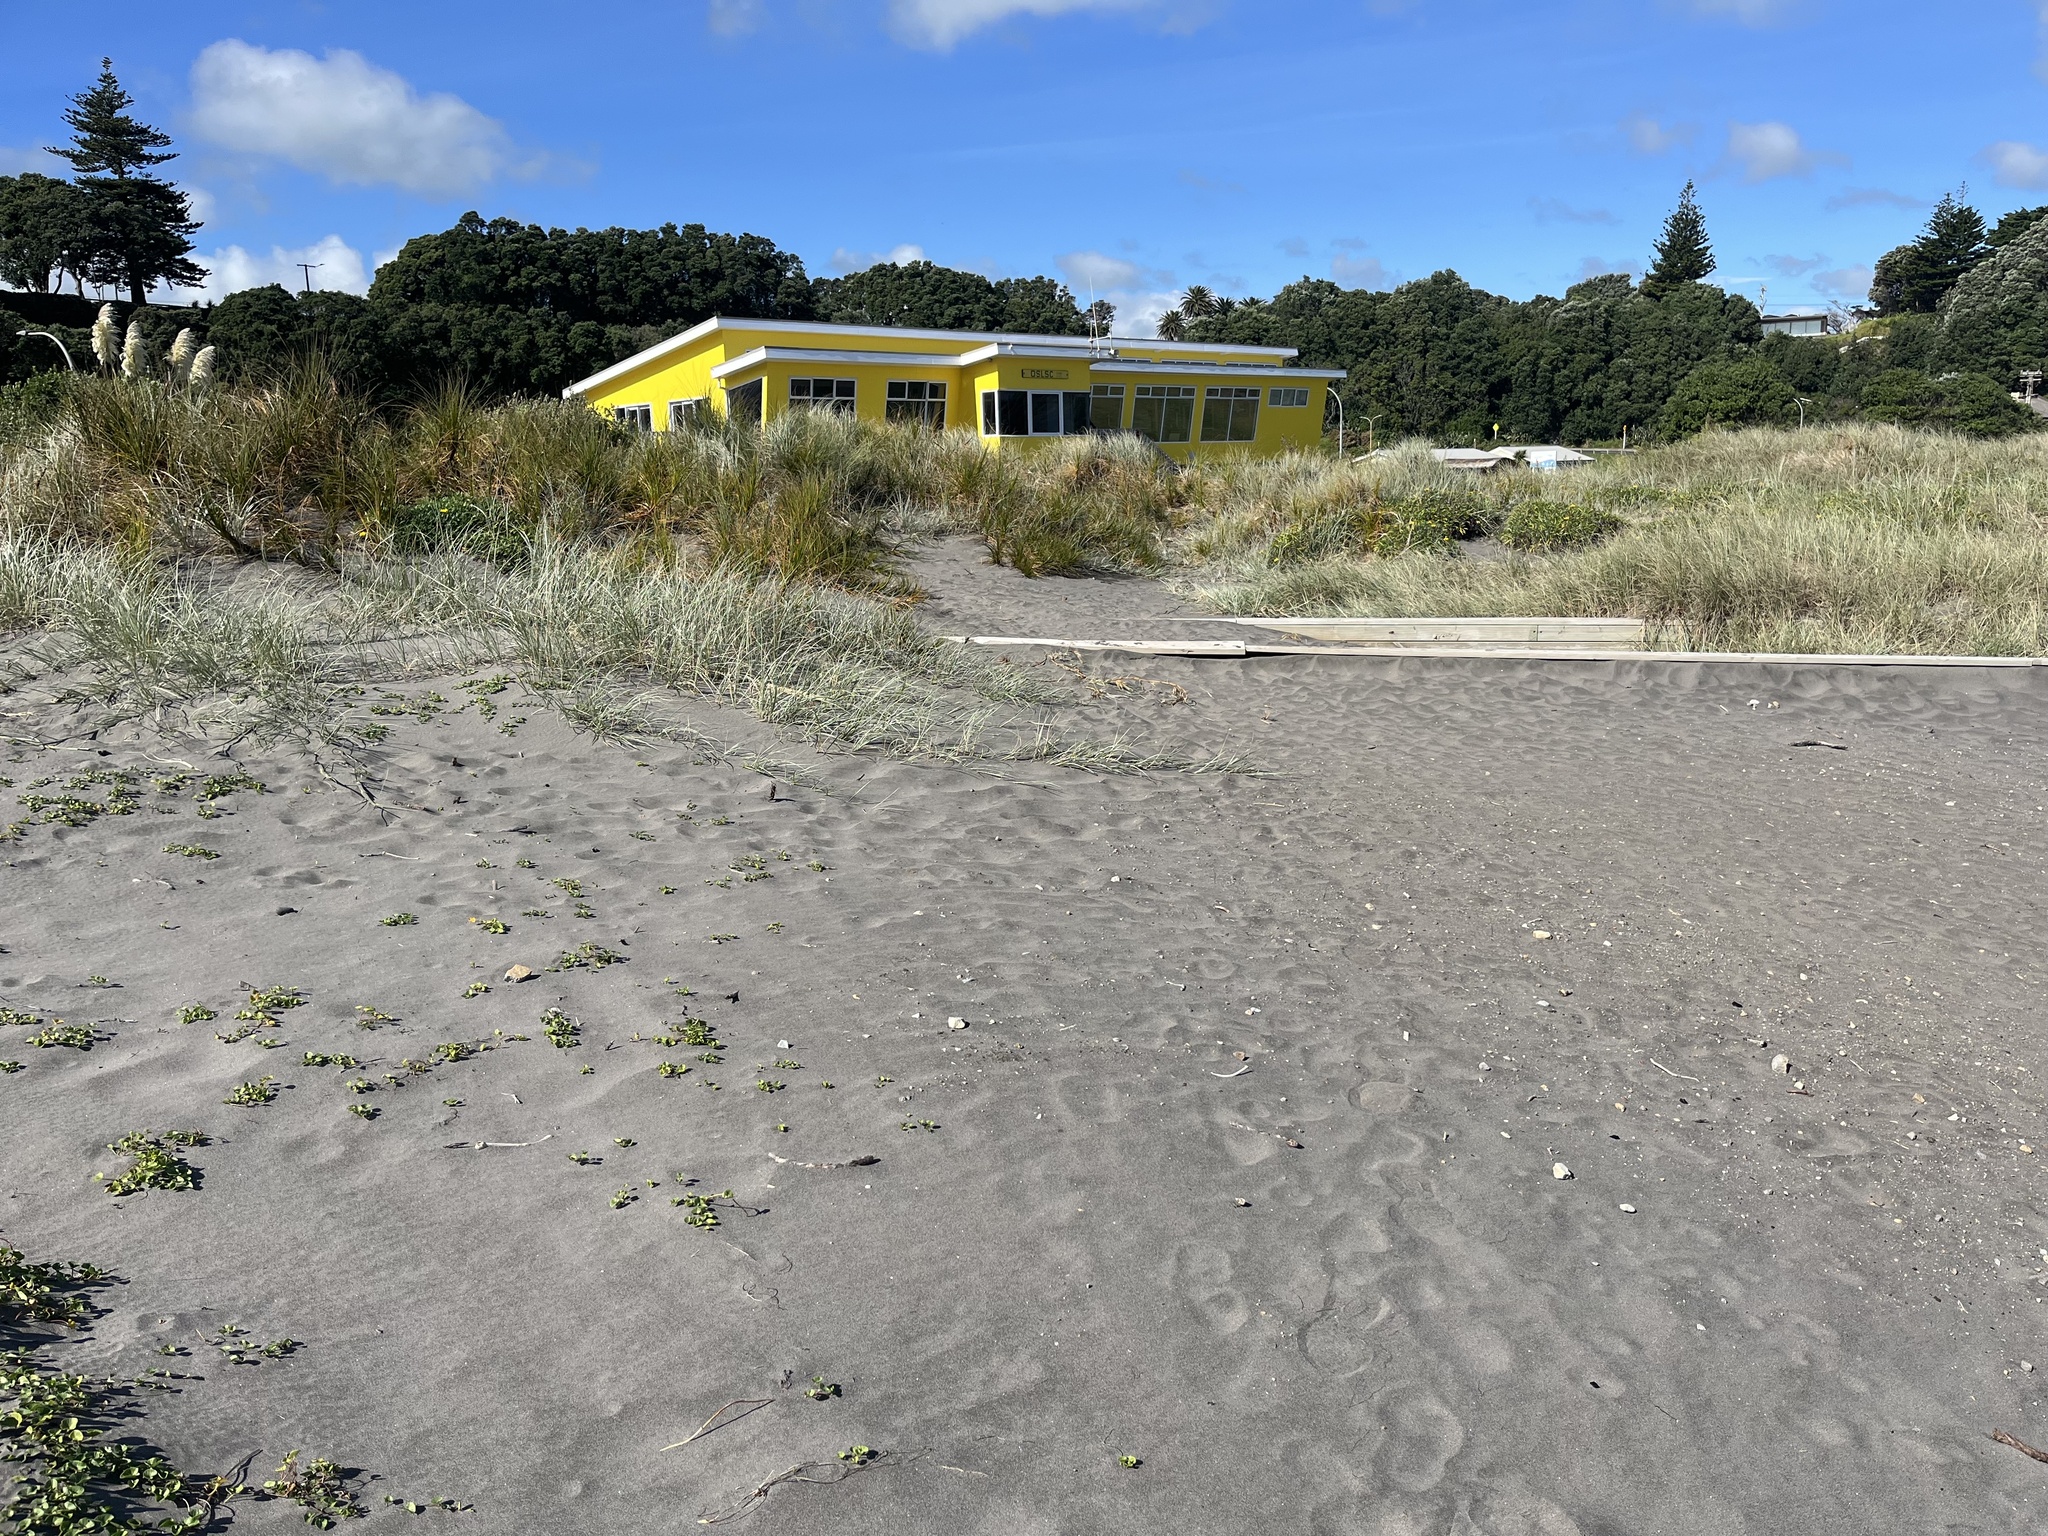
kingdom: Plantae
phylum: Tracheophyta
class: Liliopsida
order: Poales
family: Poaceae
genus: Spinifex
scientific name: Spinifex sericeus
